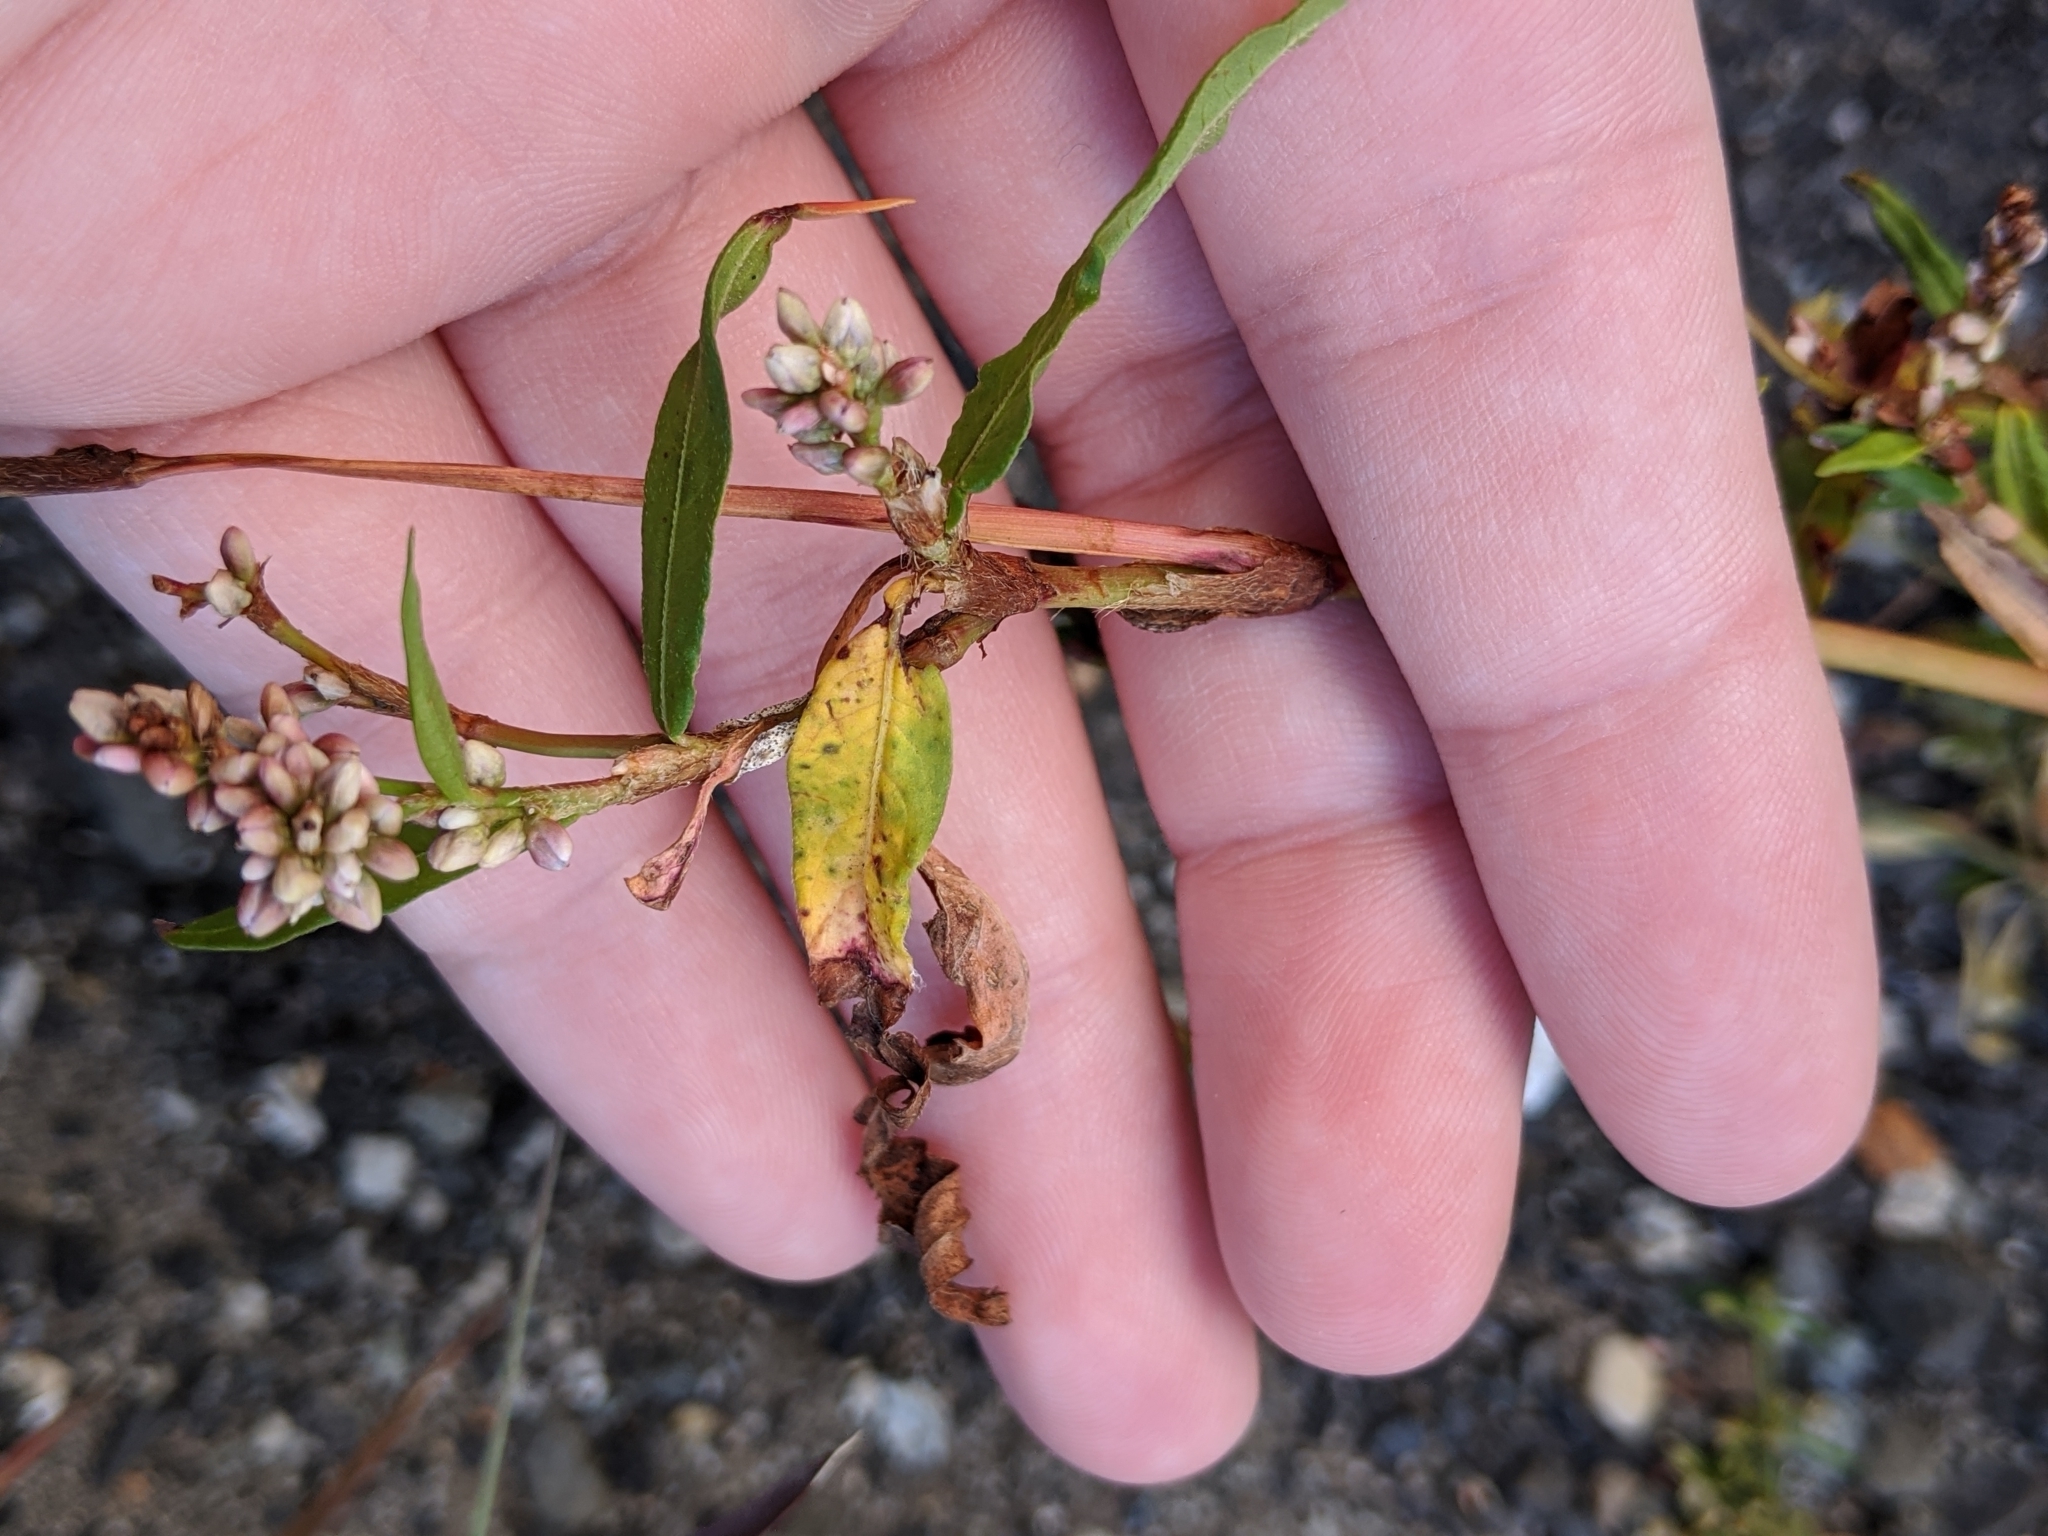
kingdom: Plantae
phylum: Tracheophyta
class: Magnoliopsida
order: Caryophyllales
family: Polygonaceae
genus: Persicaria
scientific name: Persicaria maculosa
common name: Redshank
